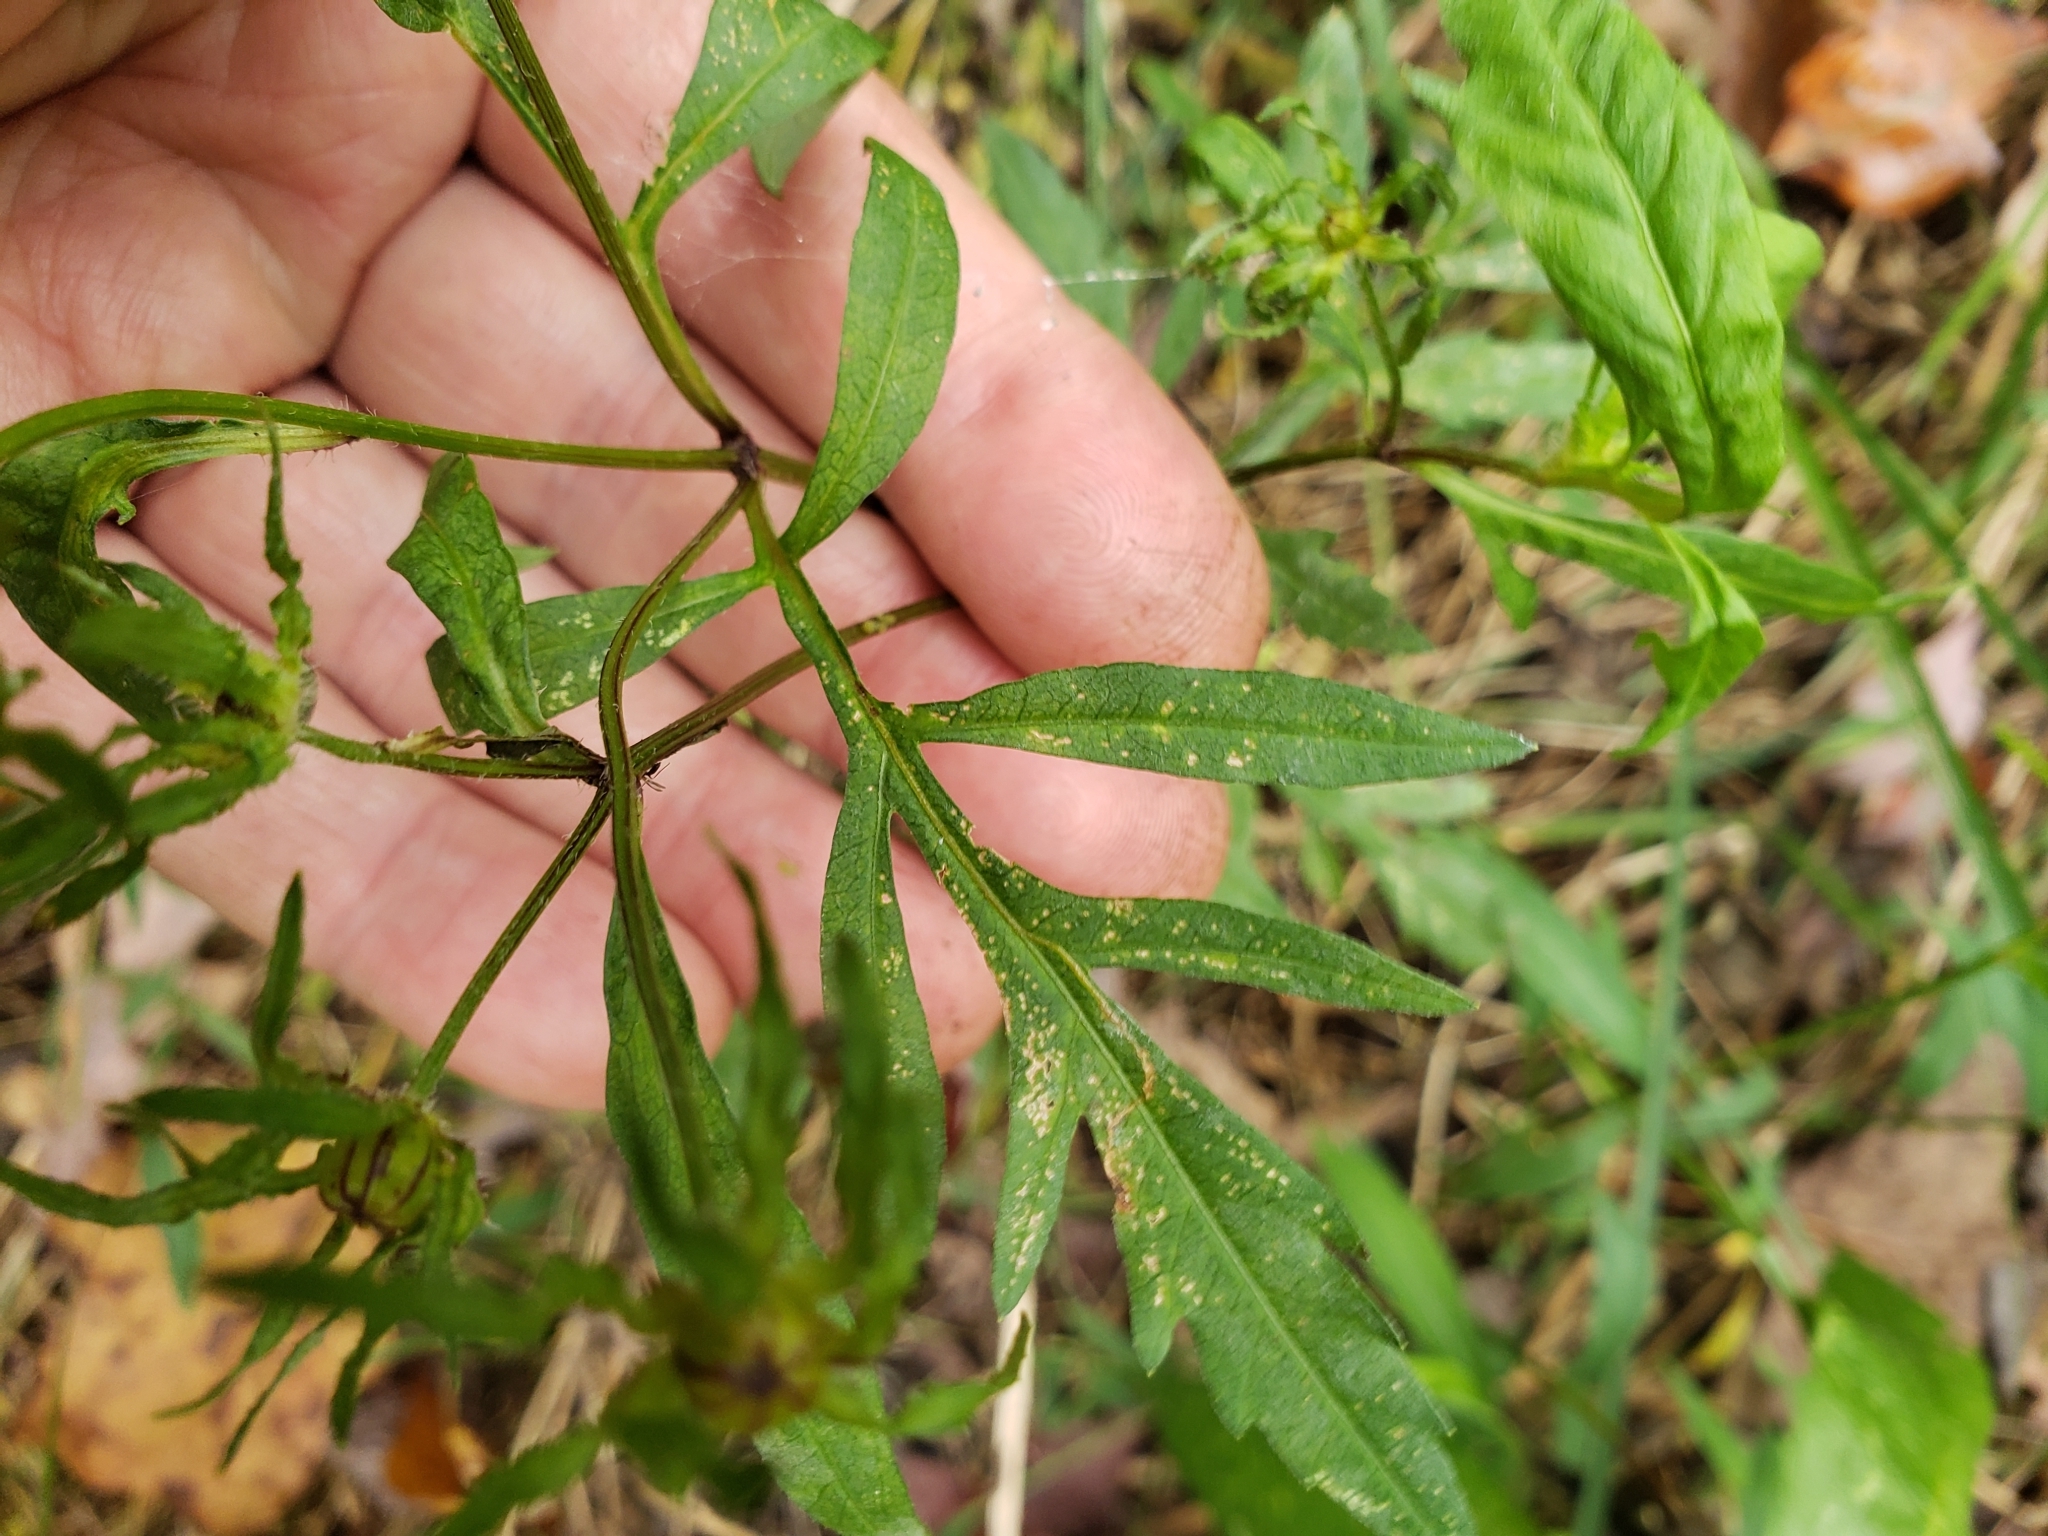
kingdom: Plantae
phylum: Tracheophyta
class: Magnoliopsida
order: Asterales
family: Asteraceae
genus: Bidens
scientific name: Bidens aristosa
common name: Western tickseed
